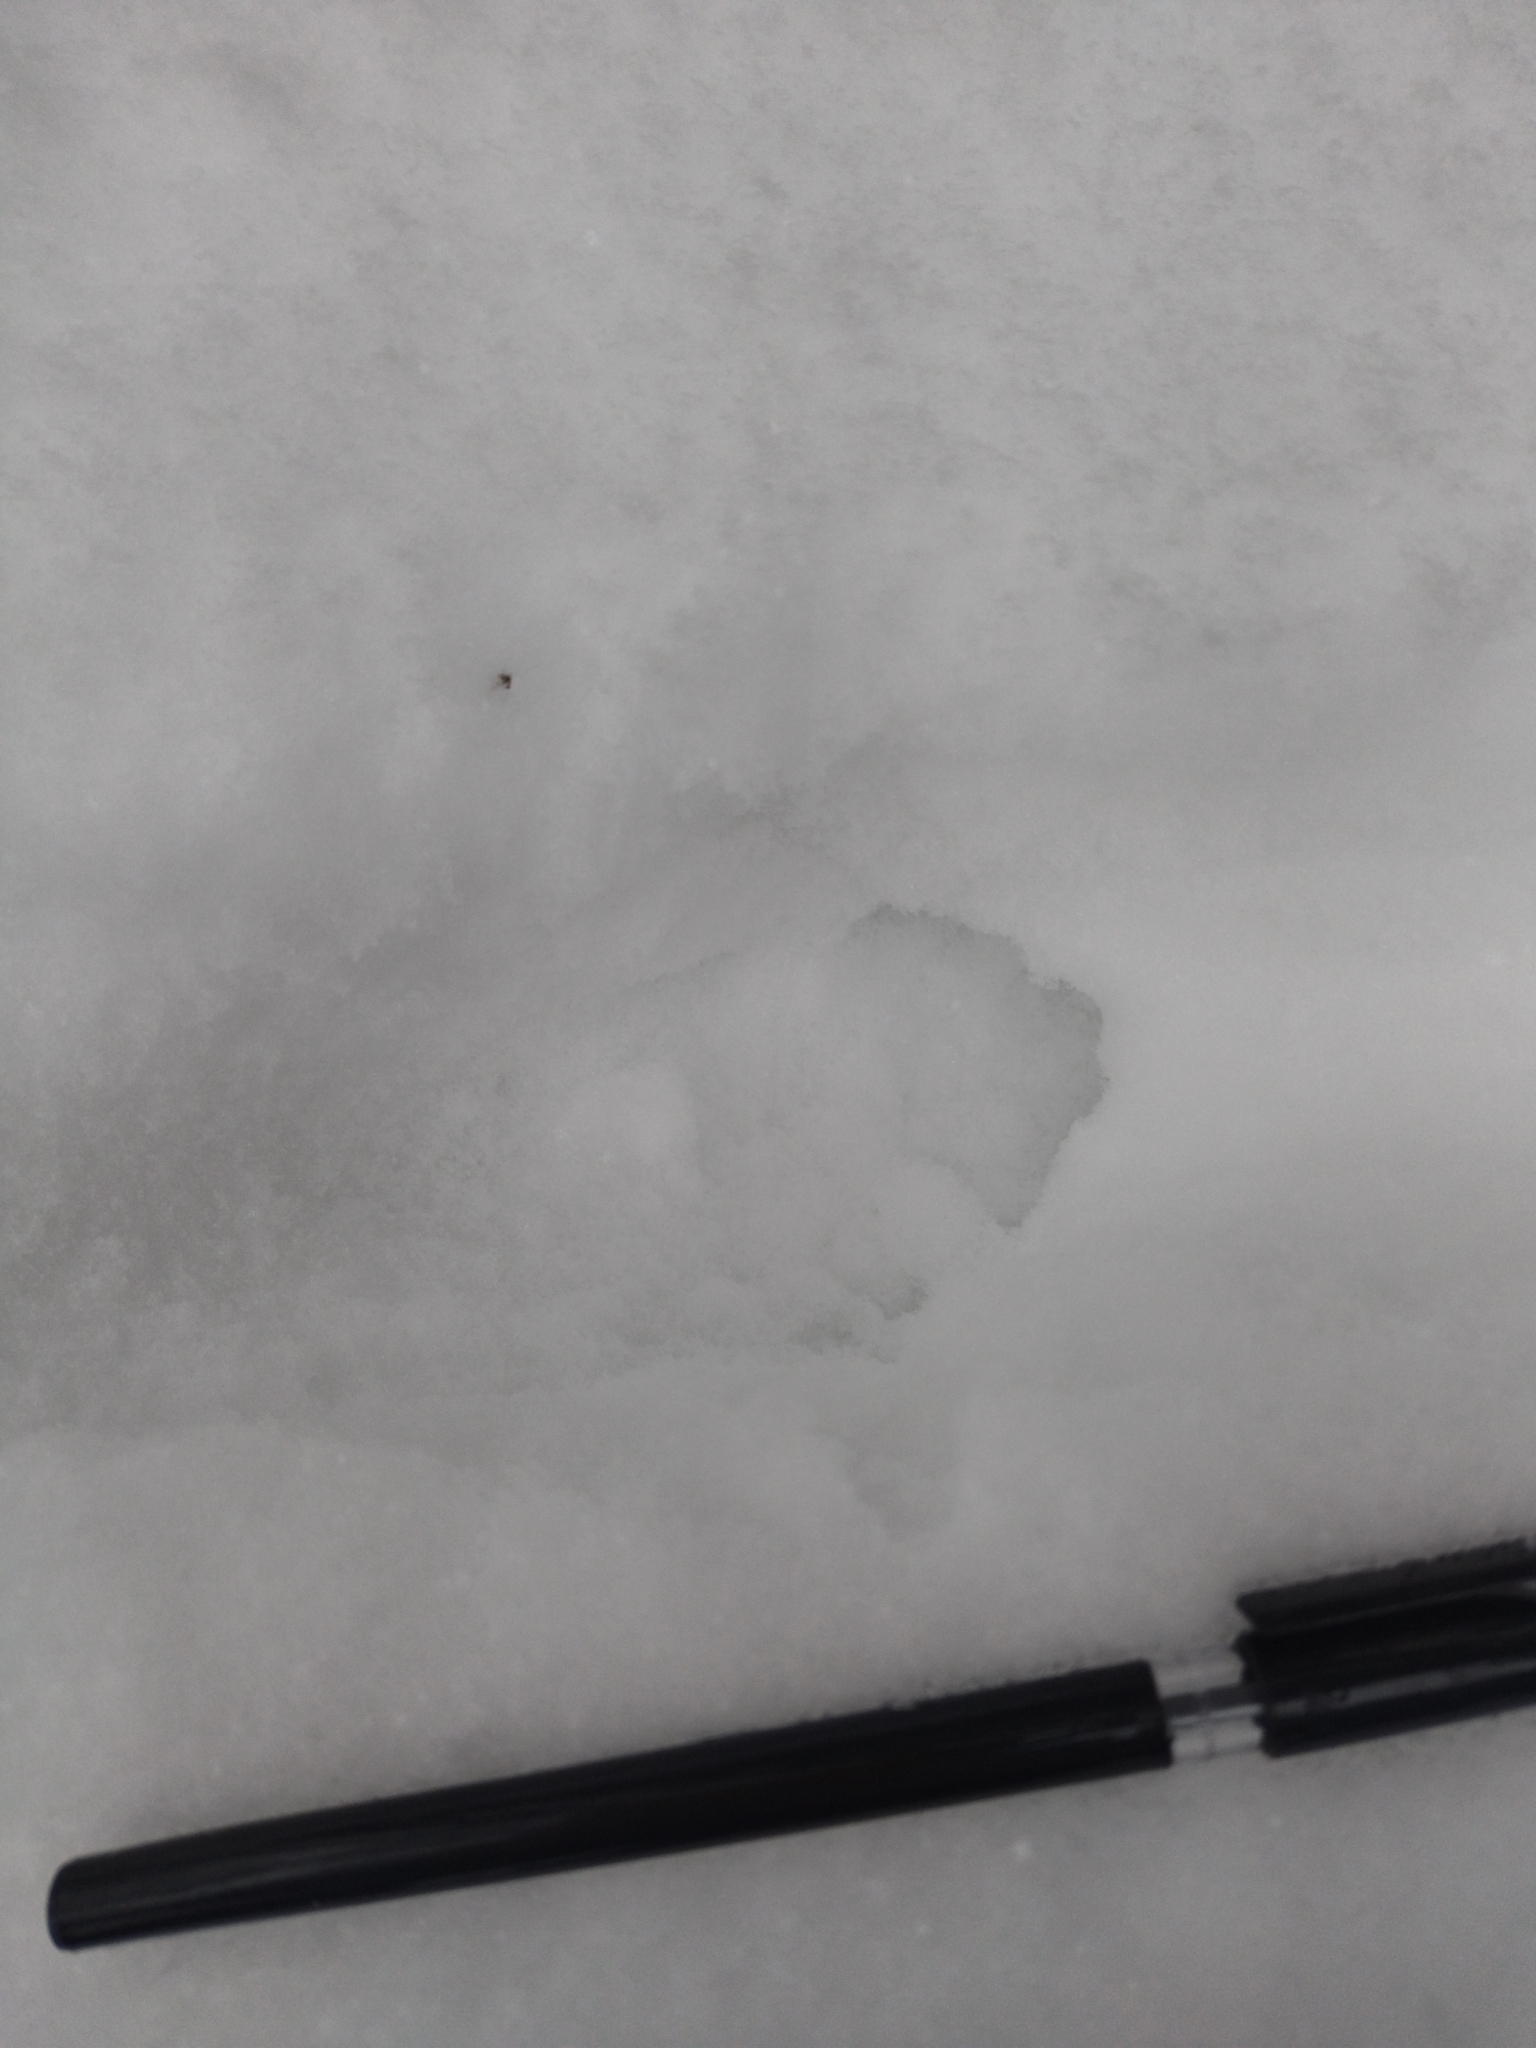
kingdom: Animalia
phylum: Chordata
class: Mammalia
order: Artiodactyla
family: Suidae
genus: Sus
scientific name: Sus scrofa
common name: Wild boar
